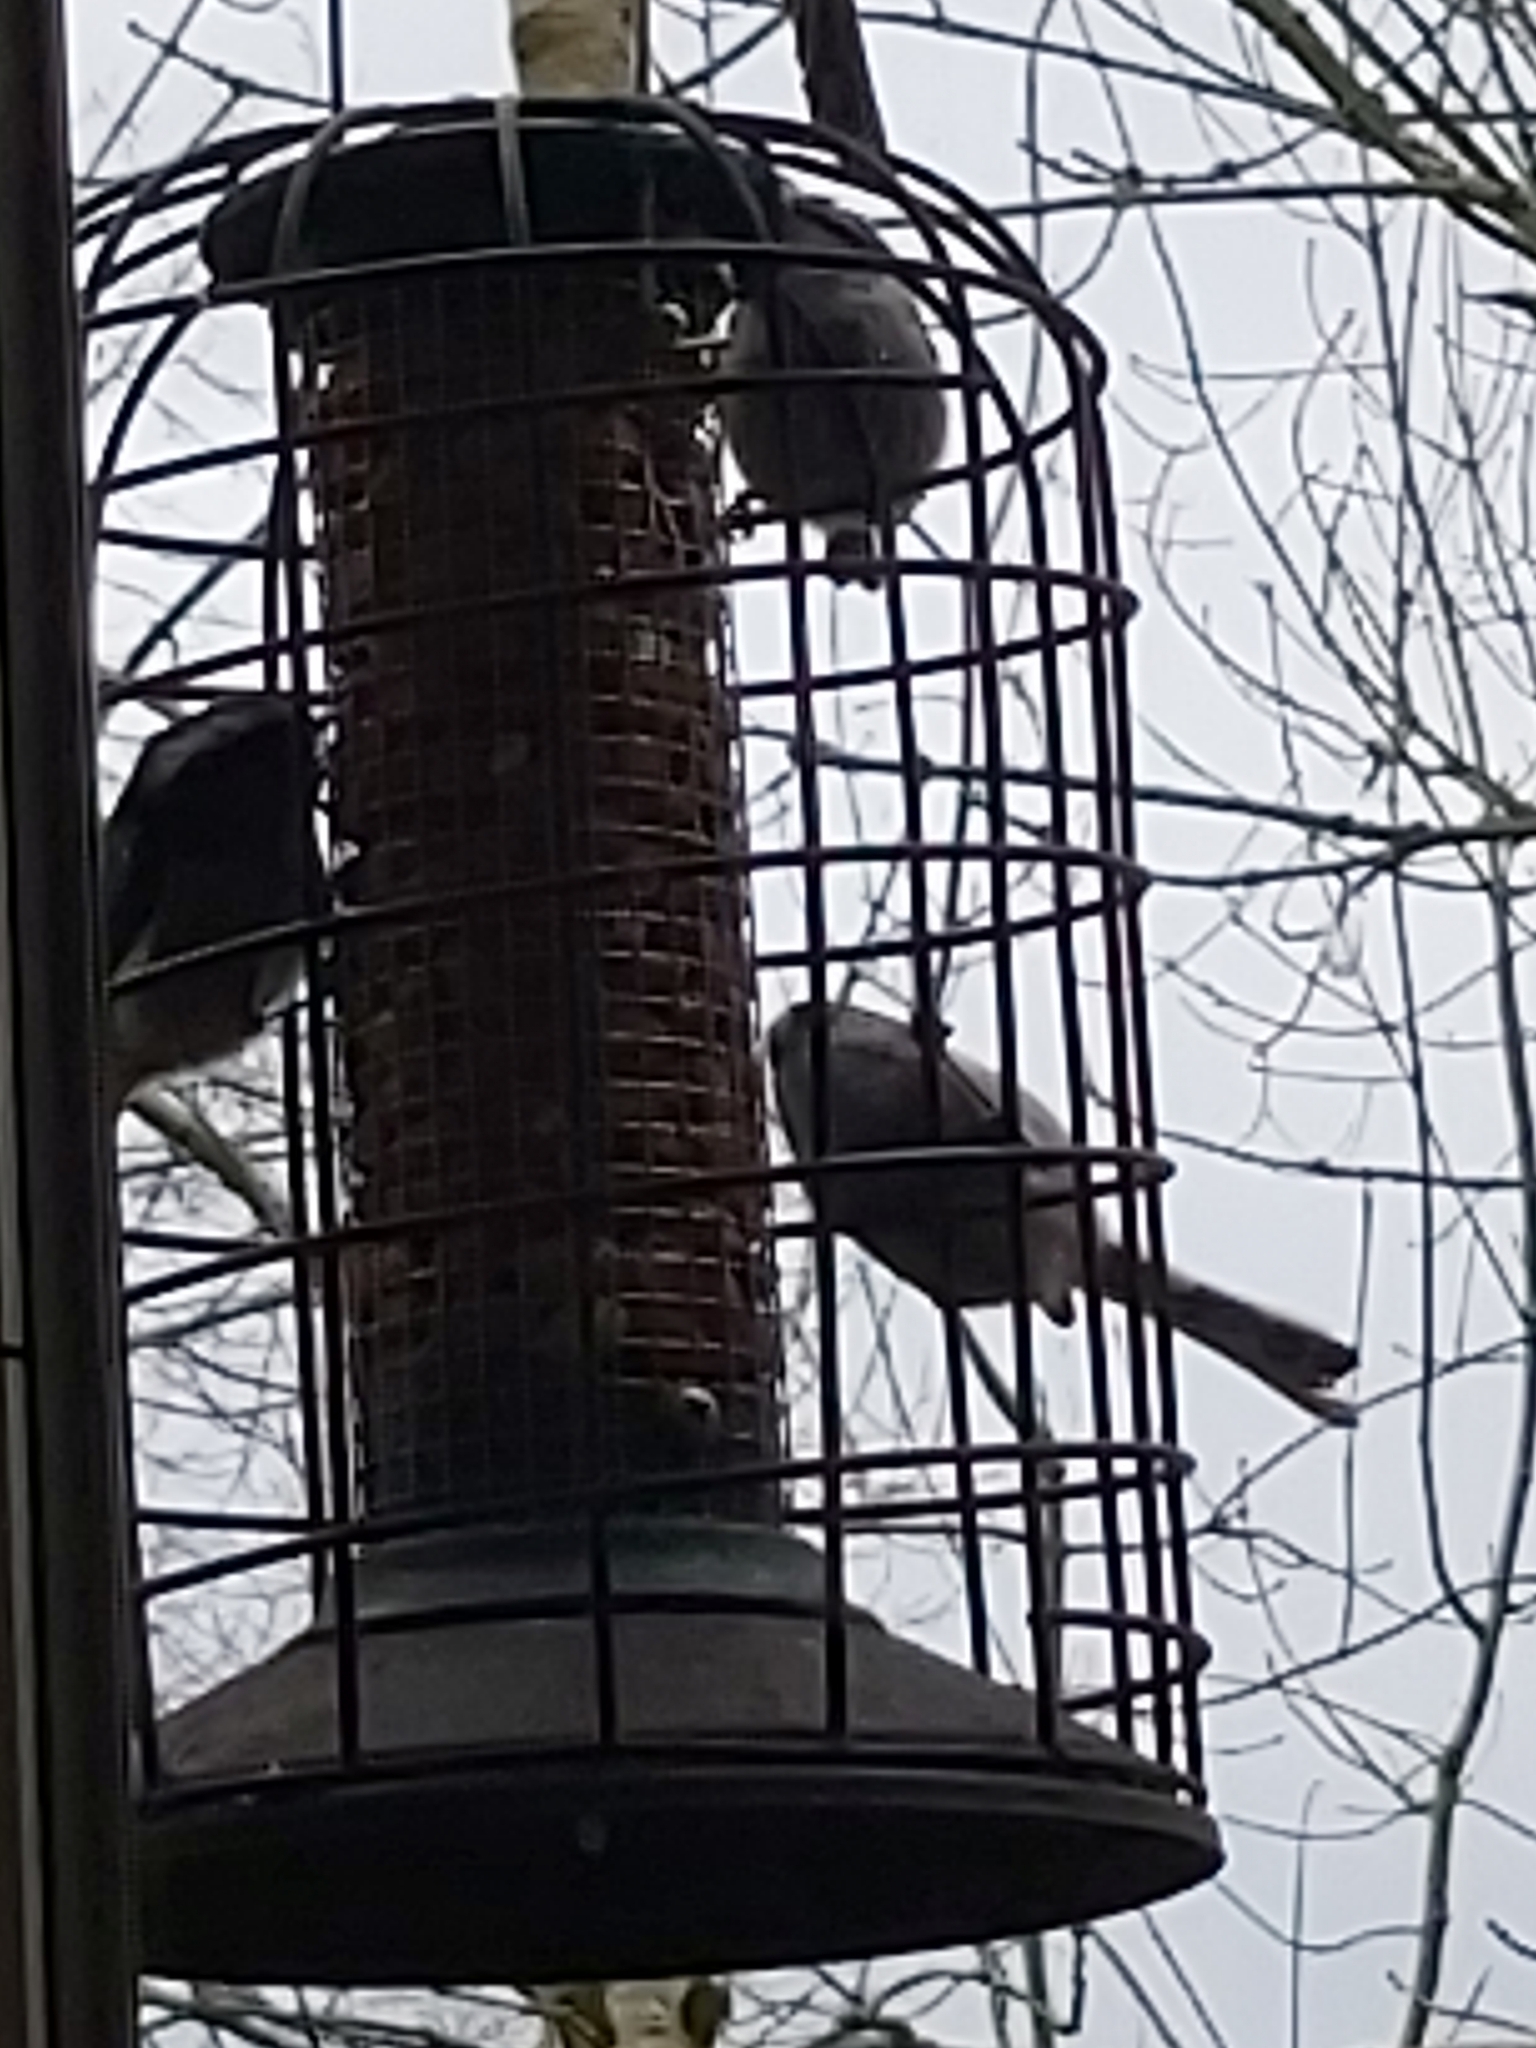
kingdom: Animalia
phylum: Chordata
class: Aves
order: Passeriformes
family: Aegithalidae
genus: Aegithalos
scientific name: Aegithalos caudatus
